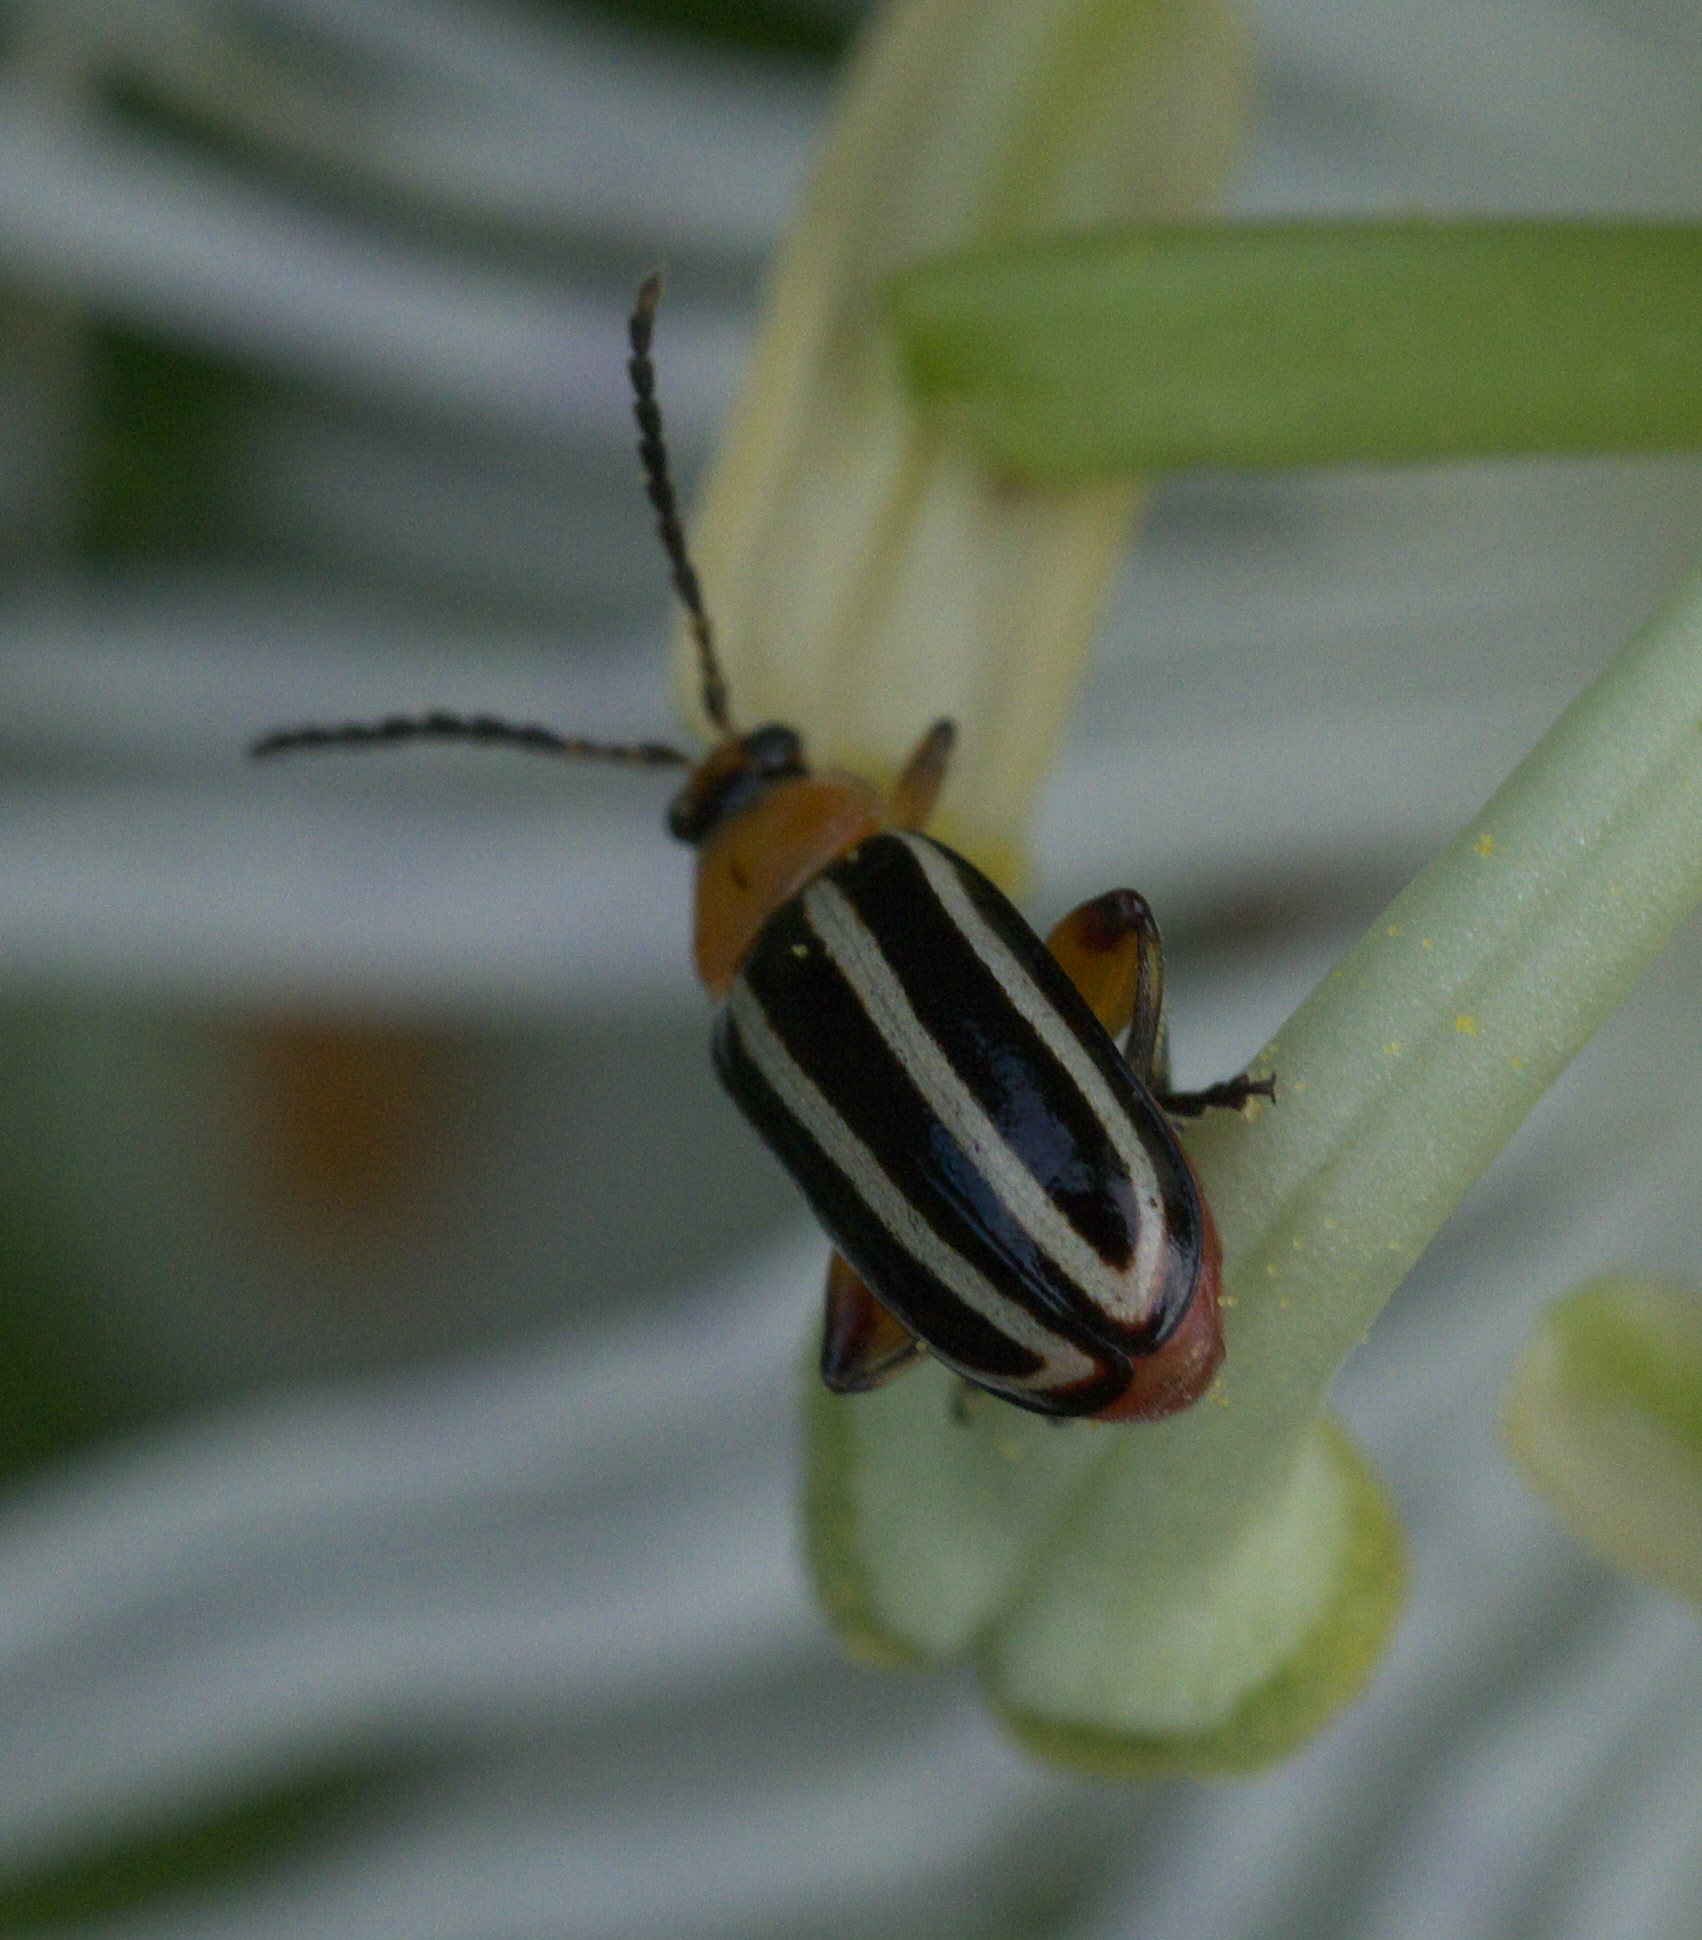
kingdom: Animalia
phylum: Arthropoda
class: Insecta
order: Coleoptera
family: Chrysomelidae
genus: Disonycha
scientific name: Disonycha glabrata
